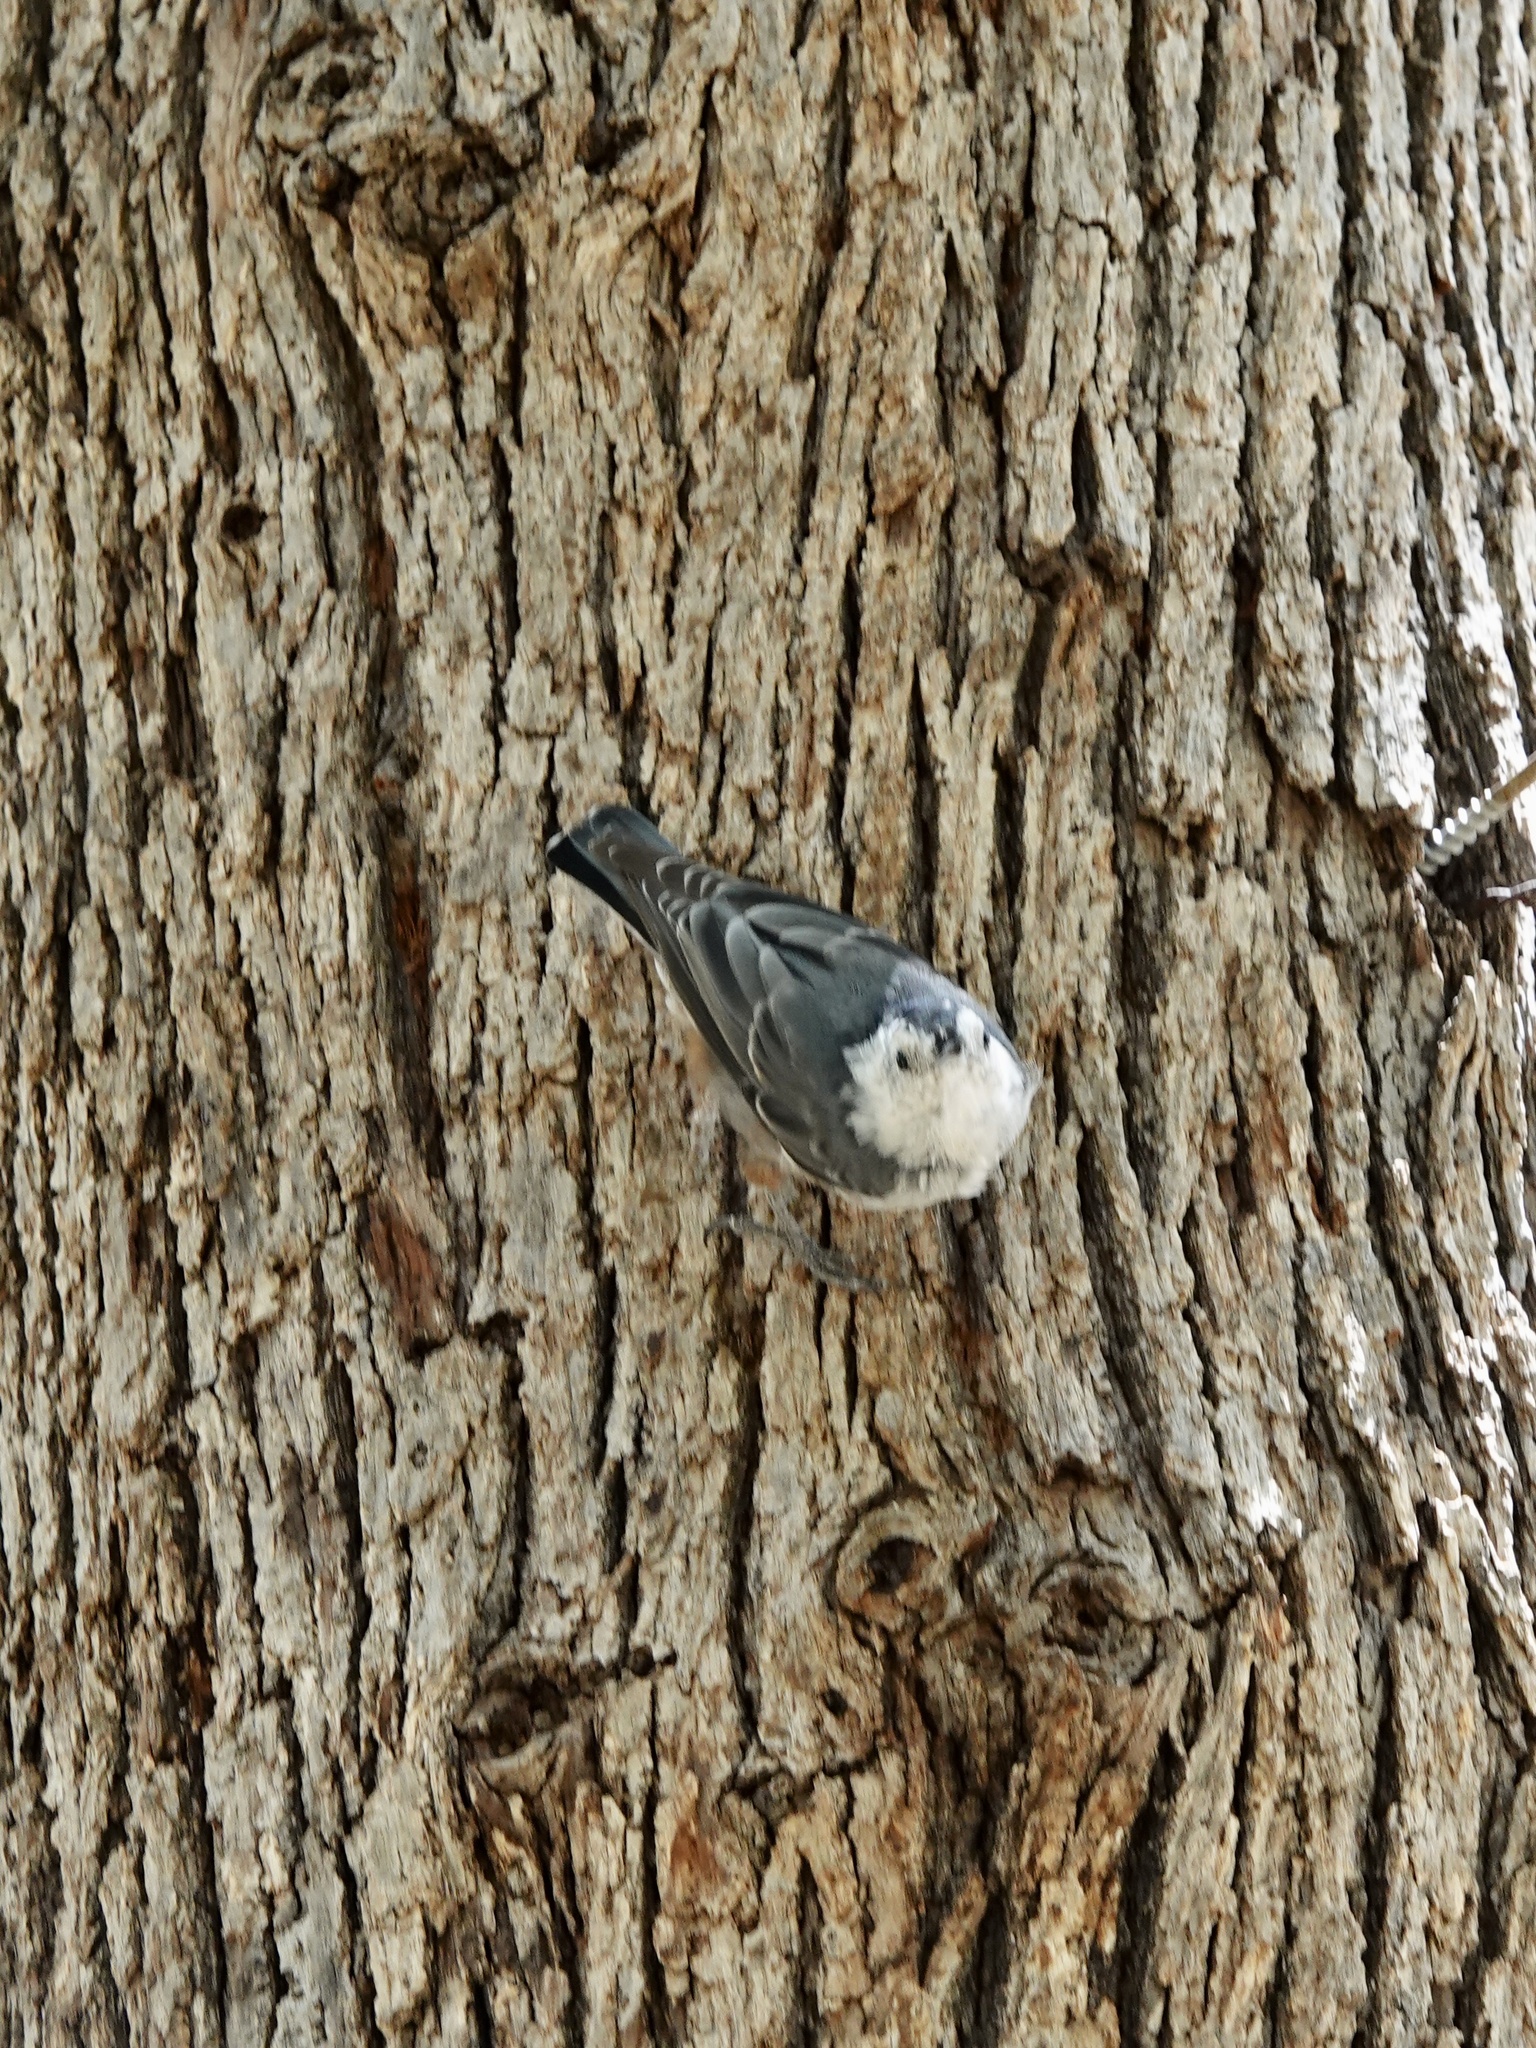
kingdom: Animalia
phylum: Chordata
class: Aves
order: Passeriformes
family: Sittidae
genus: Sitta
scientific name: Sitta carolinensis
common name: White-breasted nuthatch
